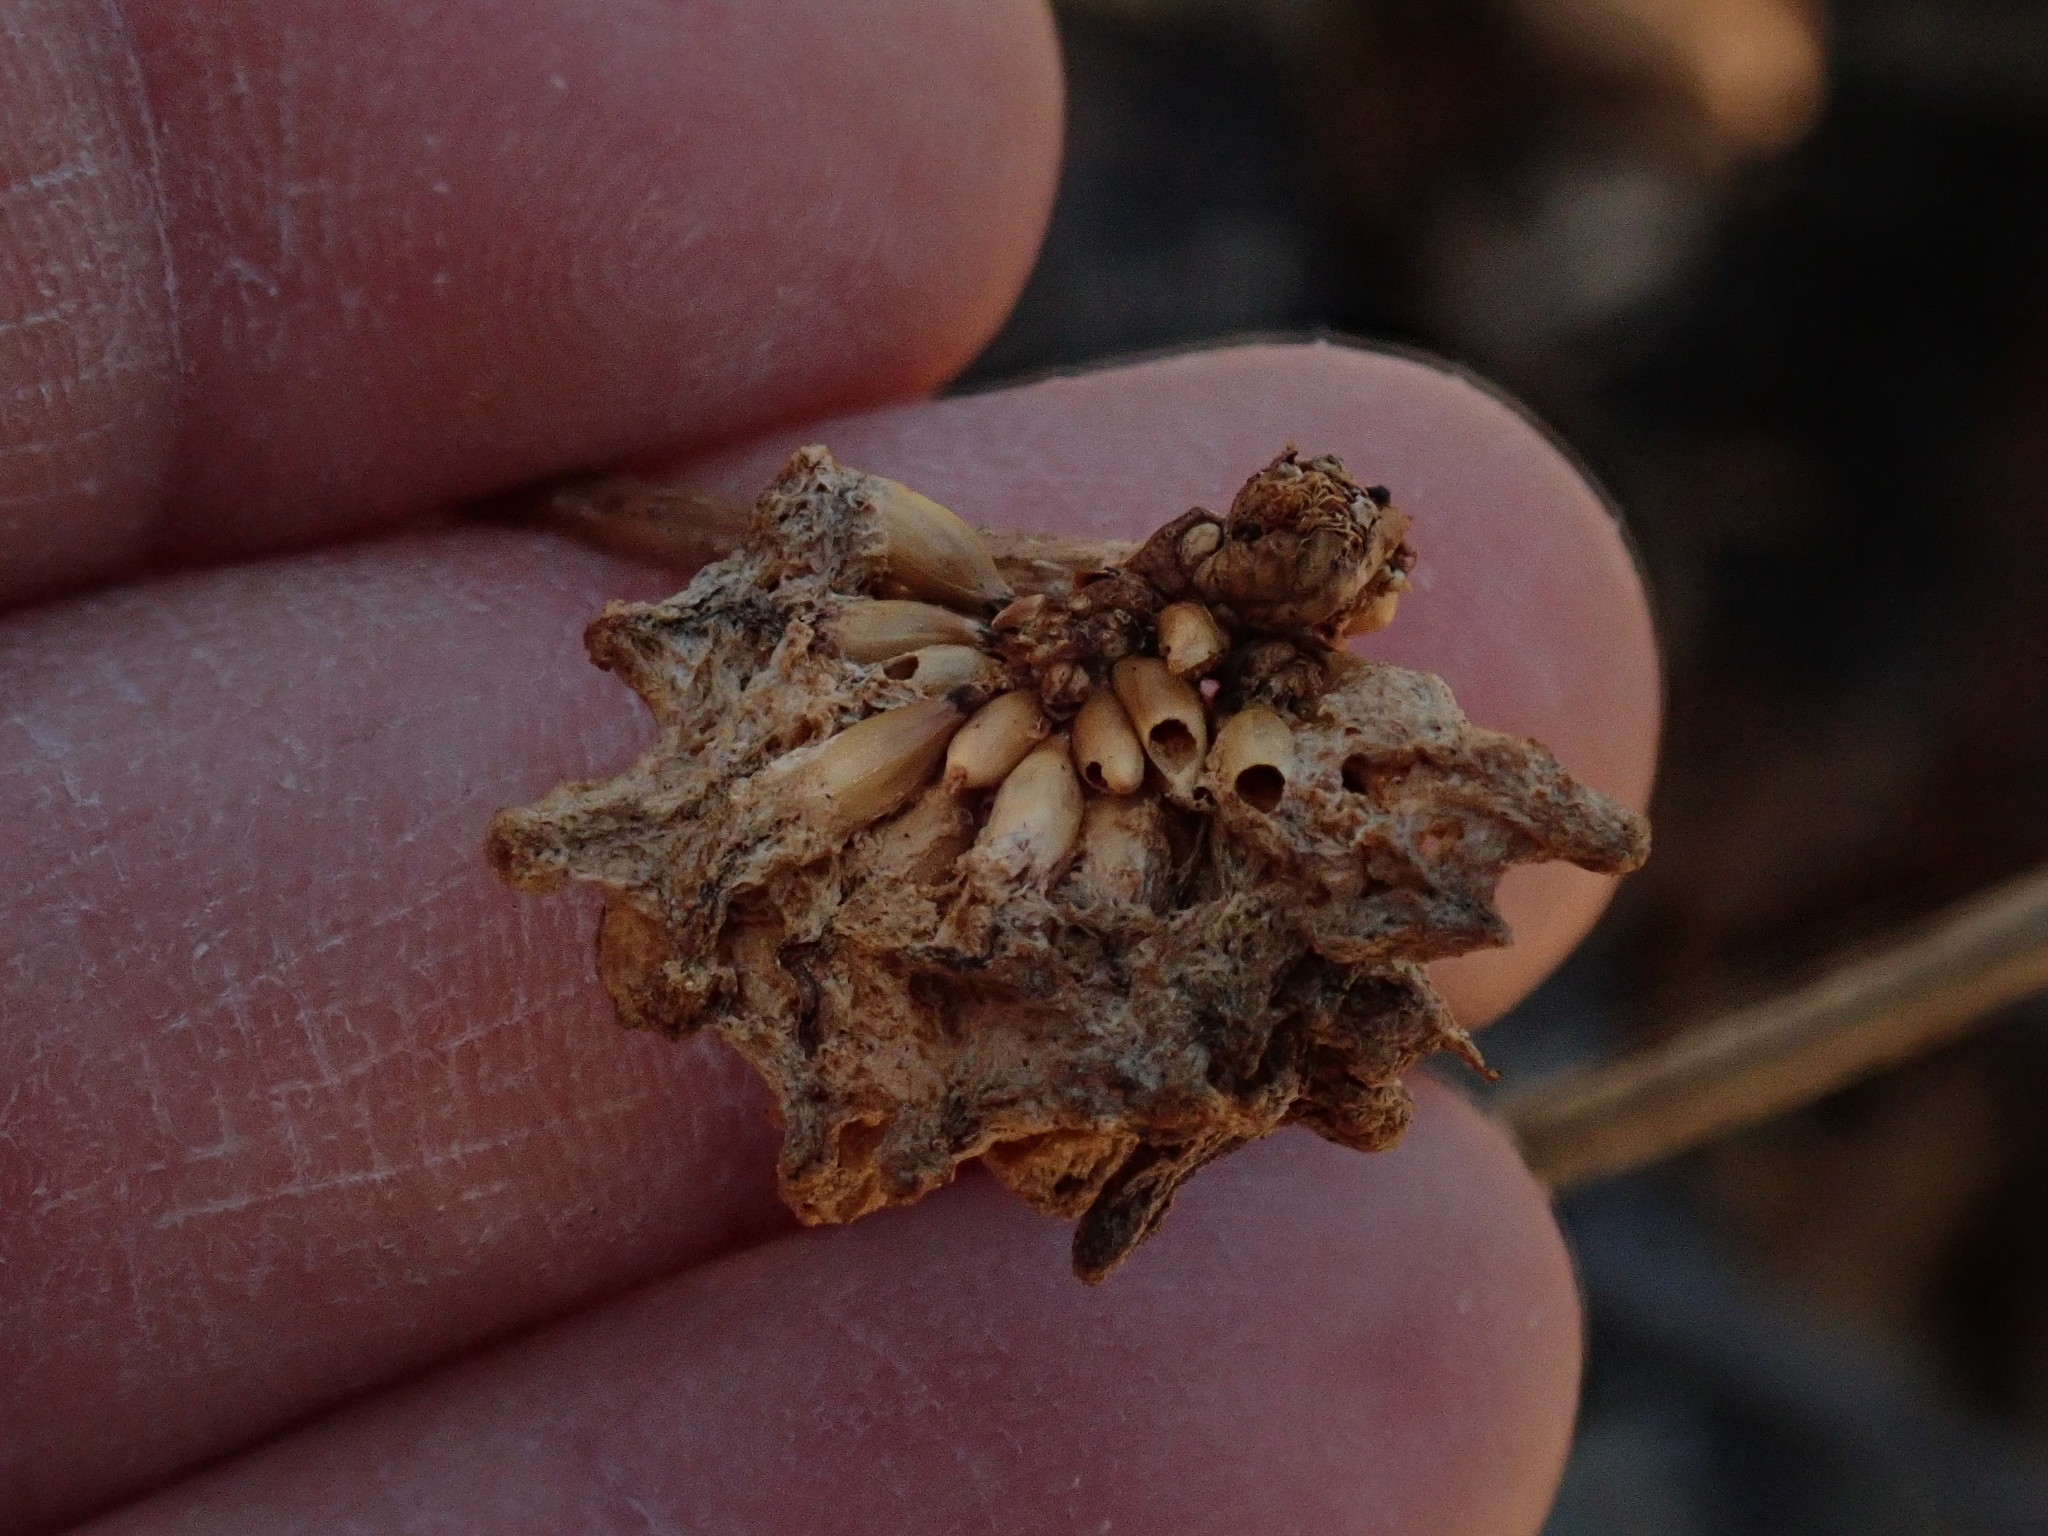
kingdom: Animalia
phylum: Arthropoda
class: Insecta
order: Hymenoptera
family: Cynipidae
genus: Callirhytis
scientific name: Callirhytis
